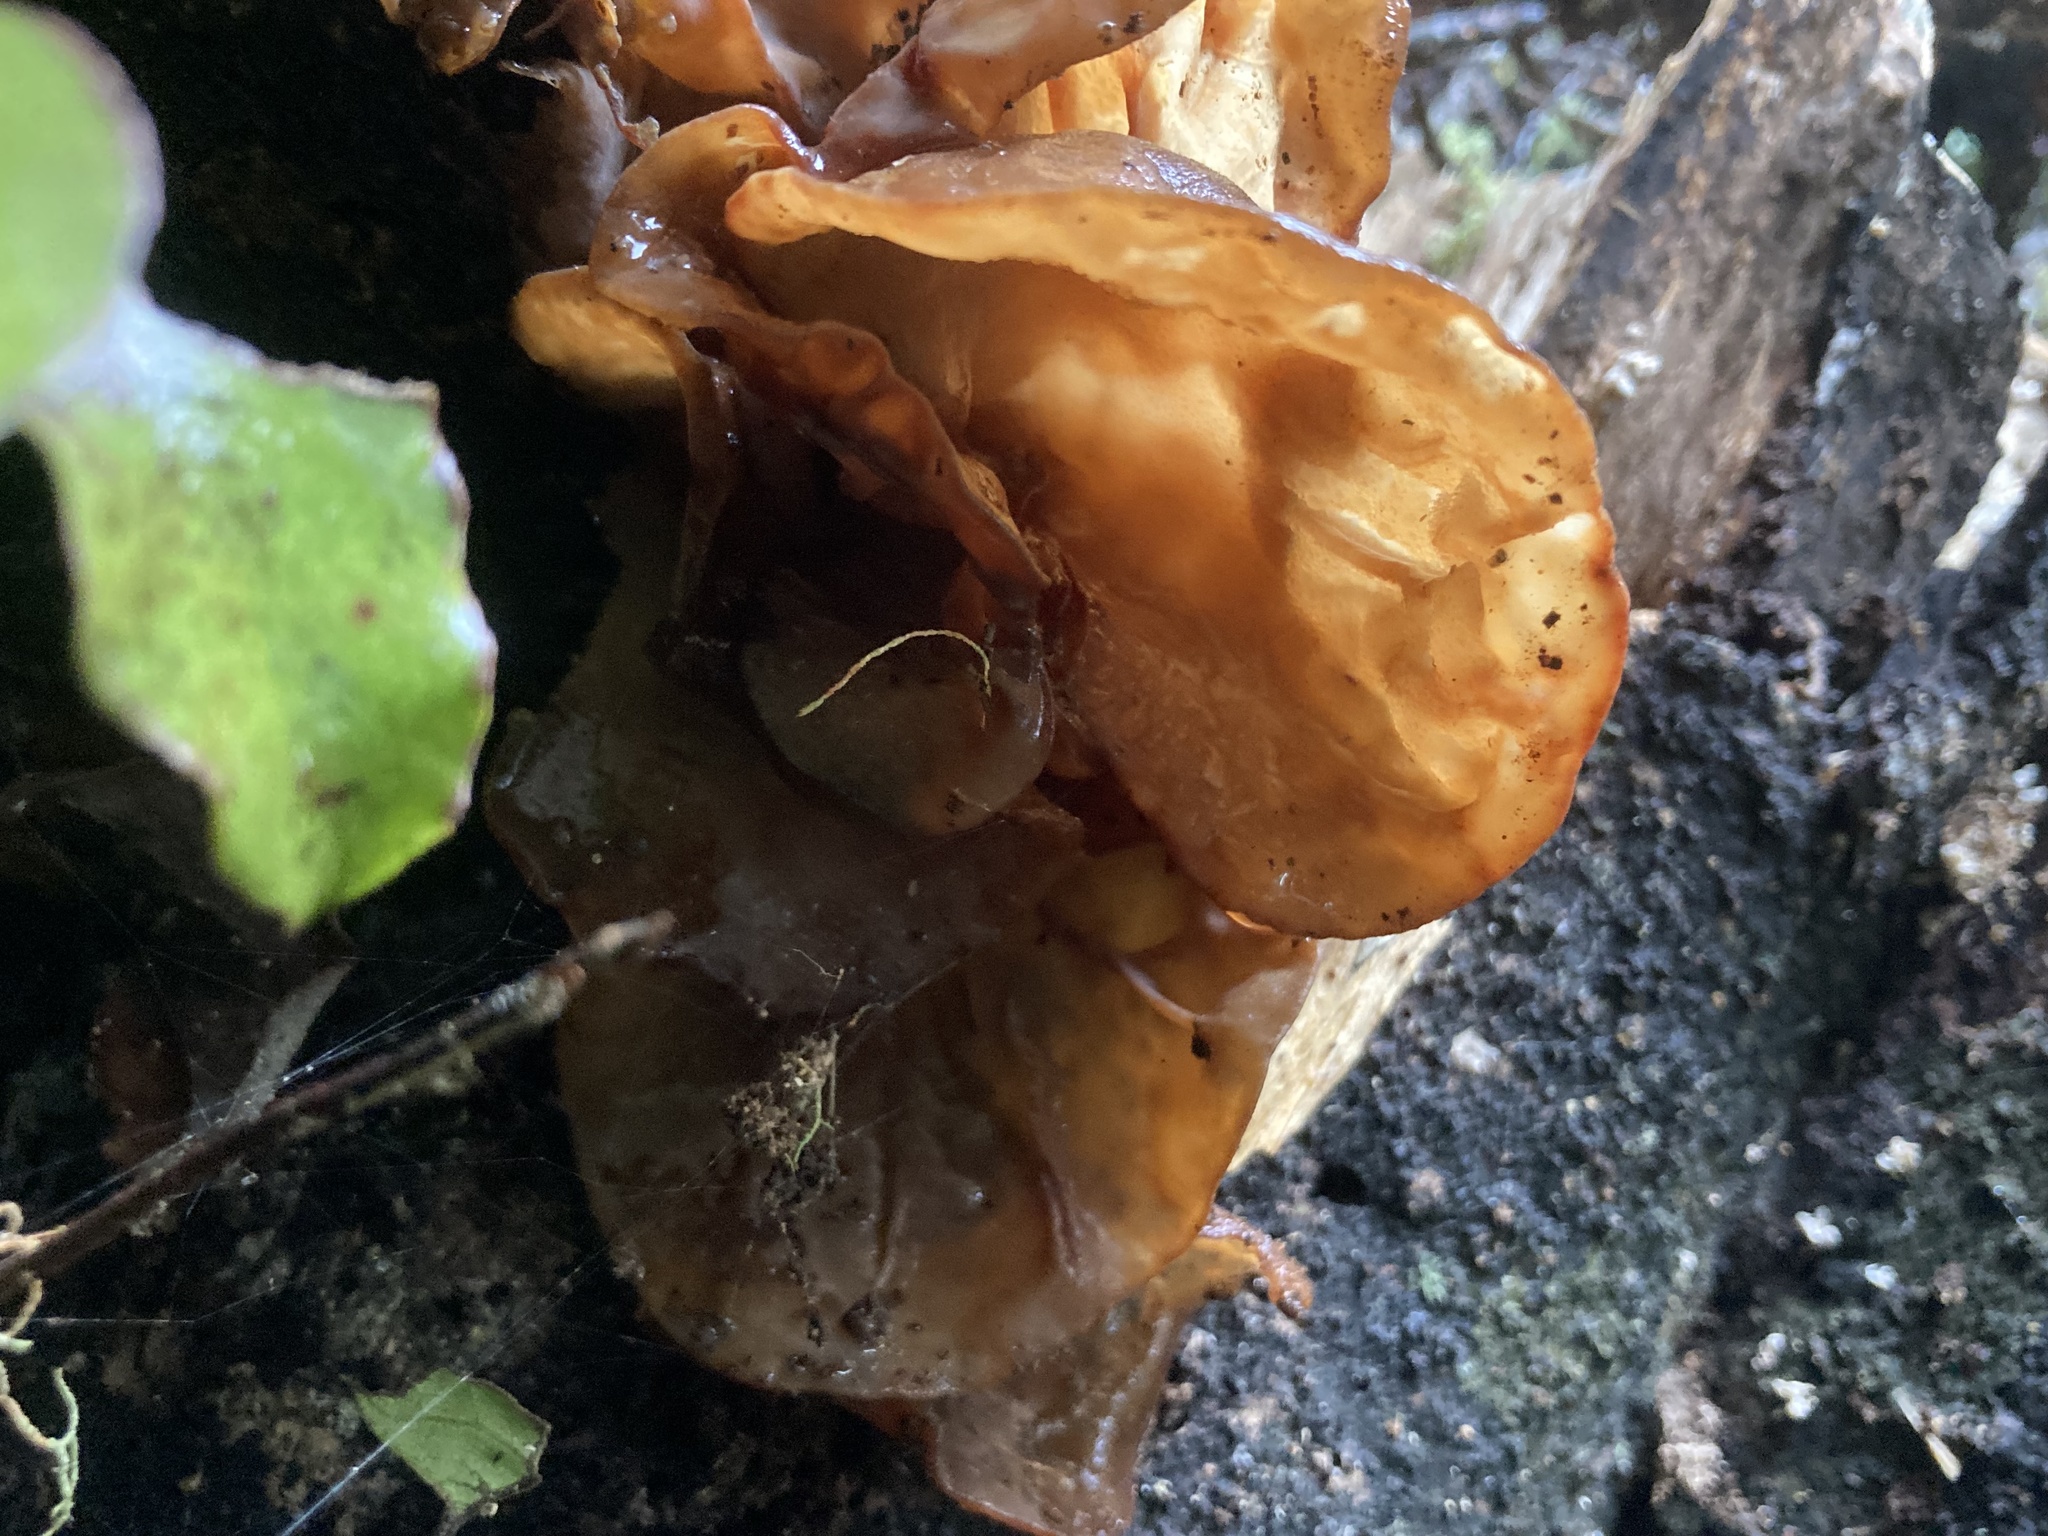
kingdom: Fungi
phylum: Basidiomycota
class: Agaricomycetes
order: Auriculariales
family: Auriculariaceae
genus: Auricularia
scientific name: Auricularia cornea
